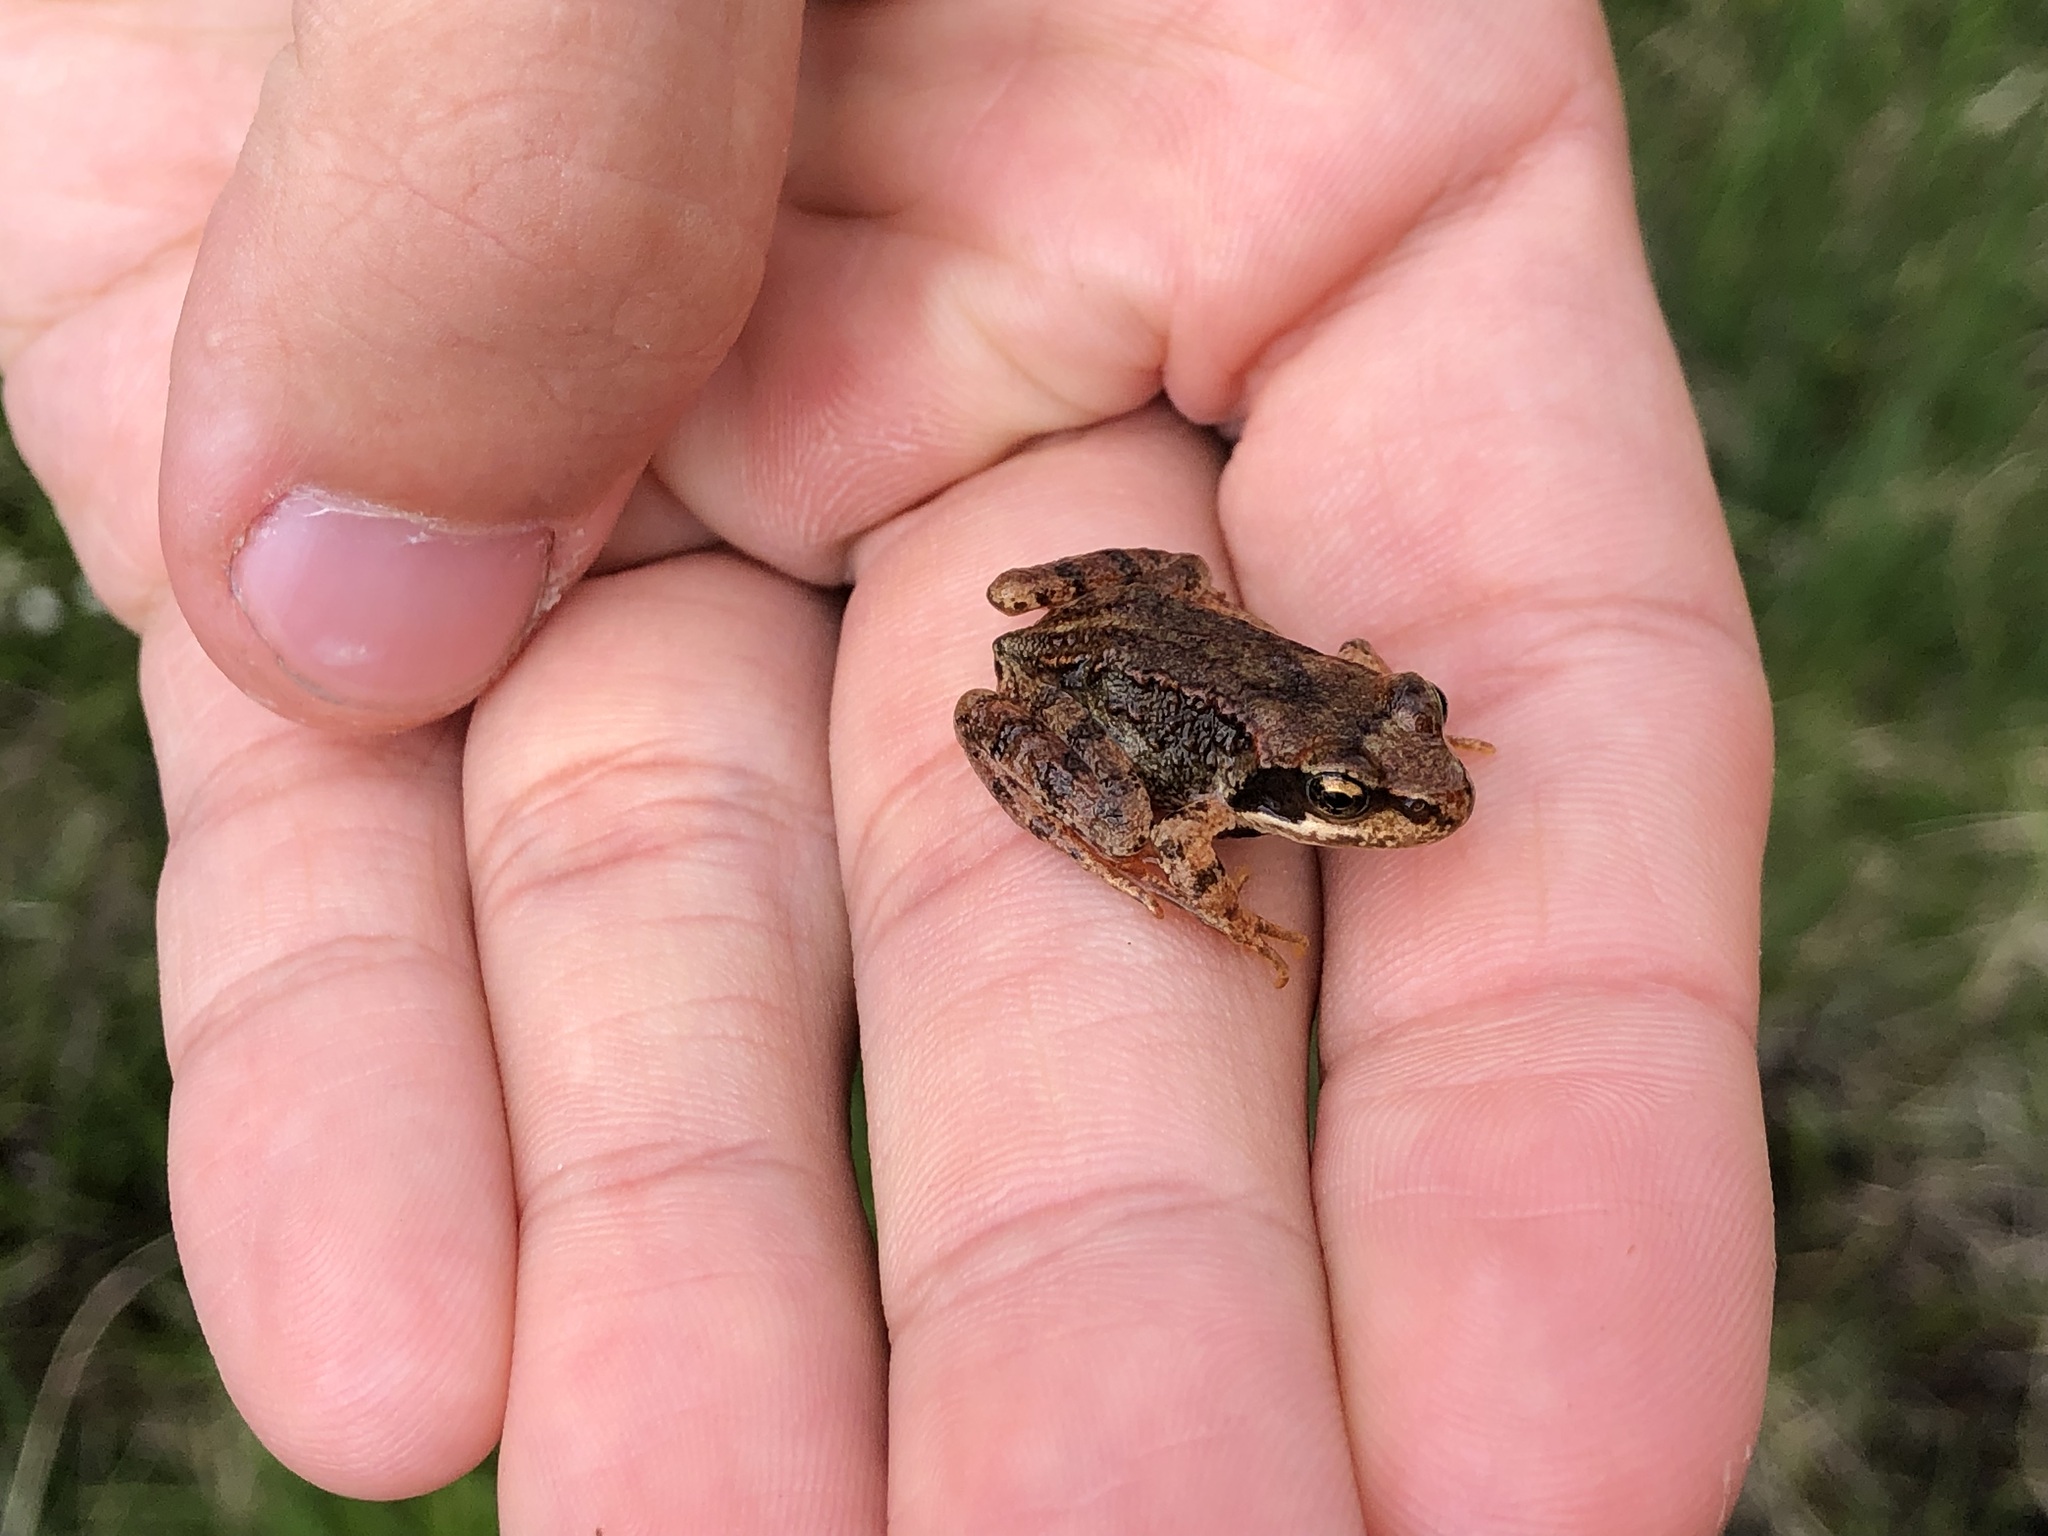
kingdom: Animalia
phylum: Chordata
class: Amphibia
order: Anura
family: Ranidae
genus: Rana
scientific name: Rana temporaria
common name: Common frog
